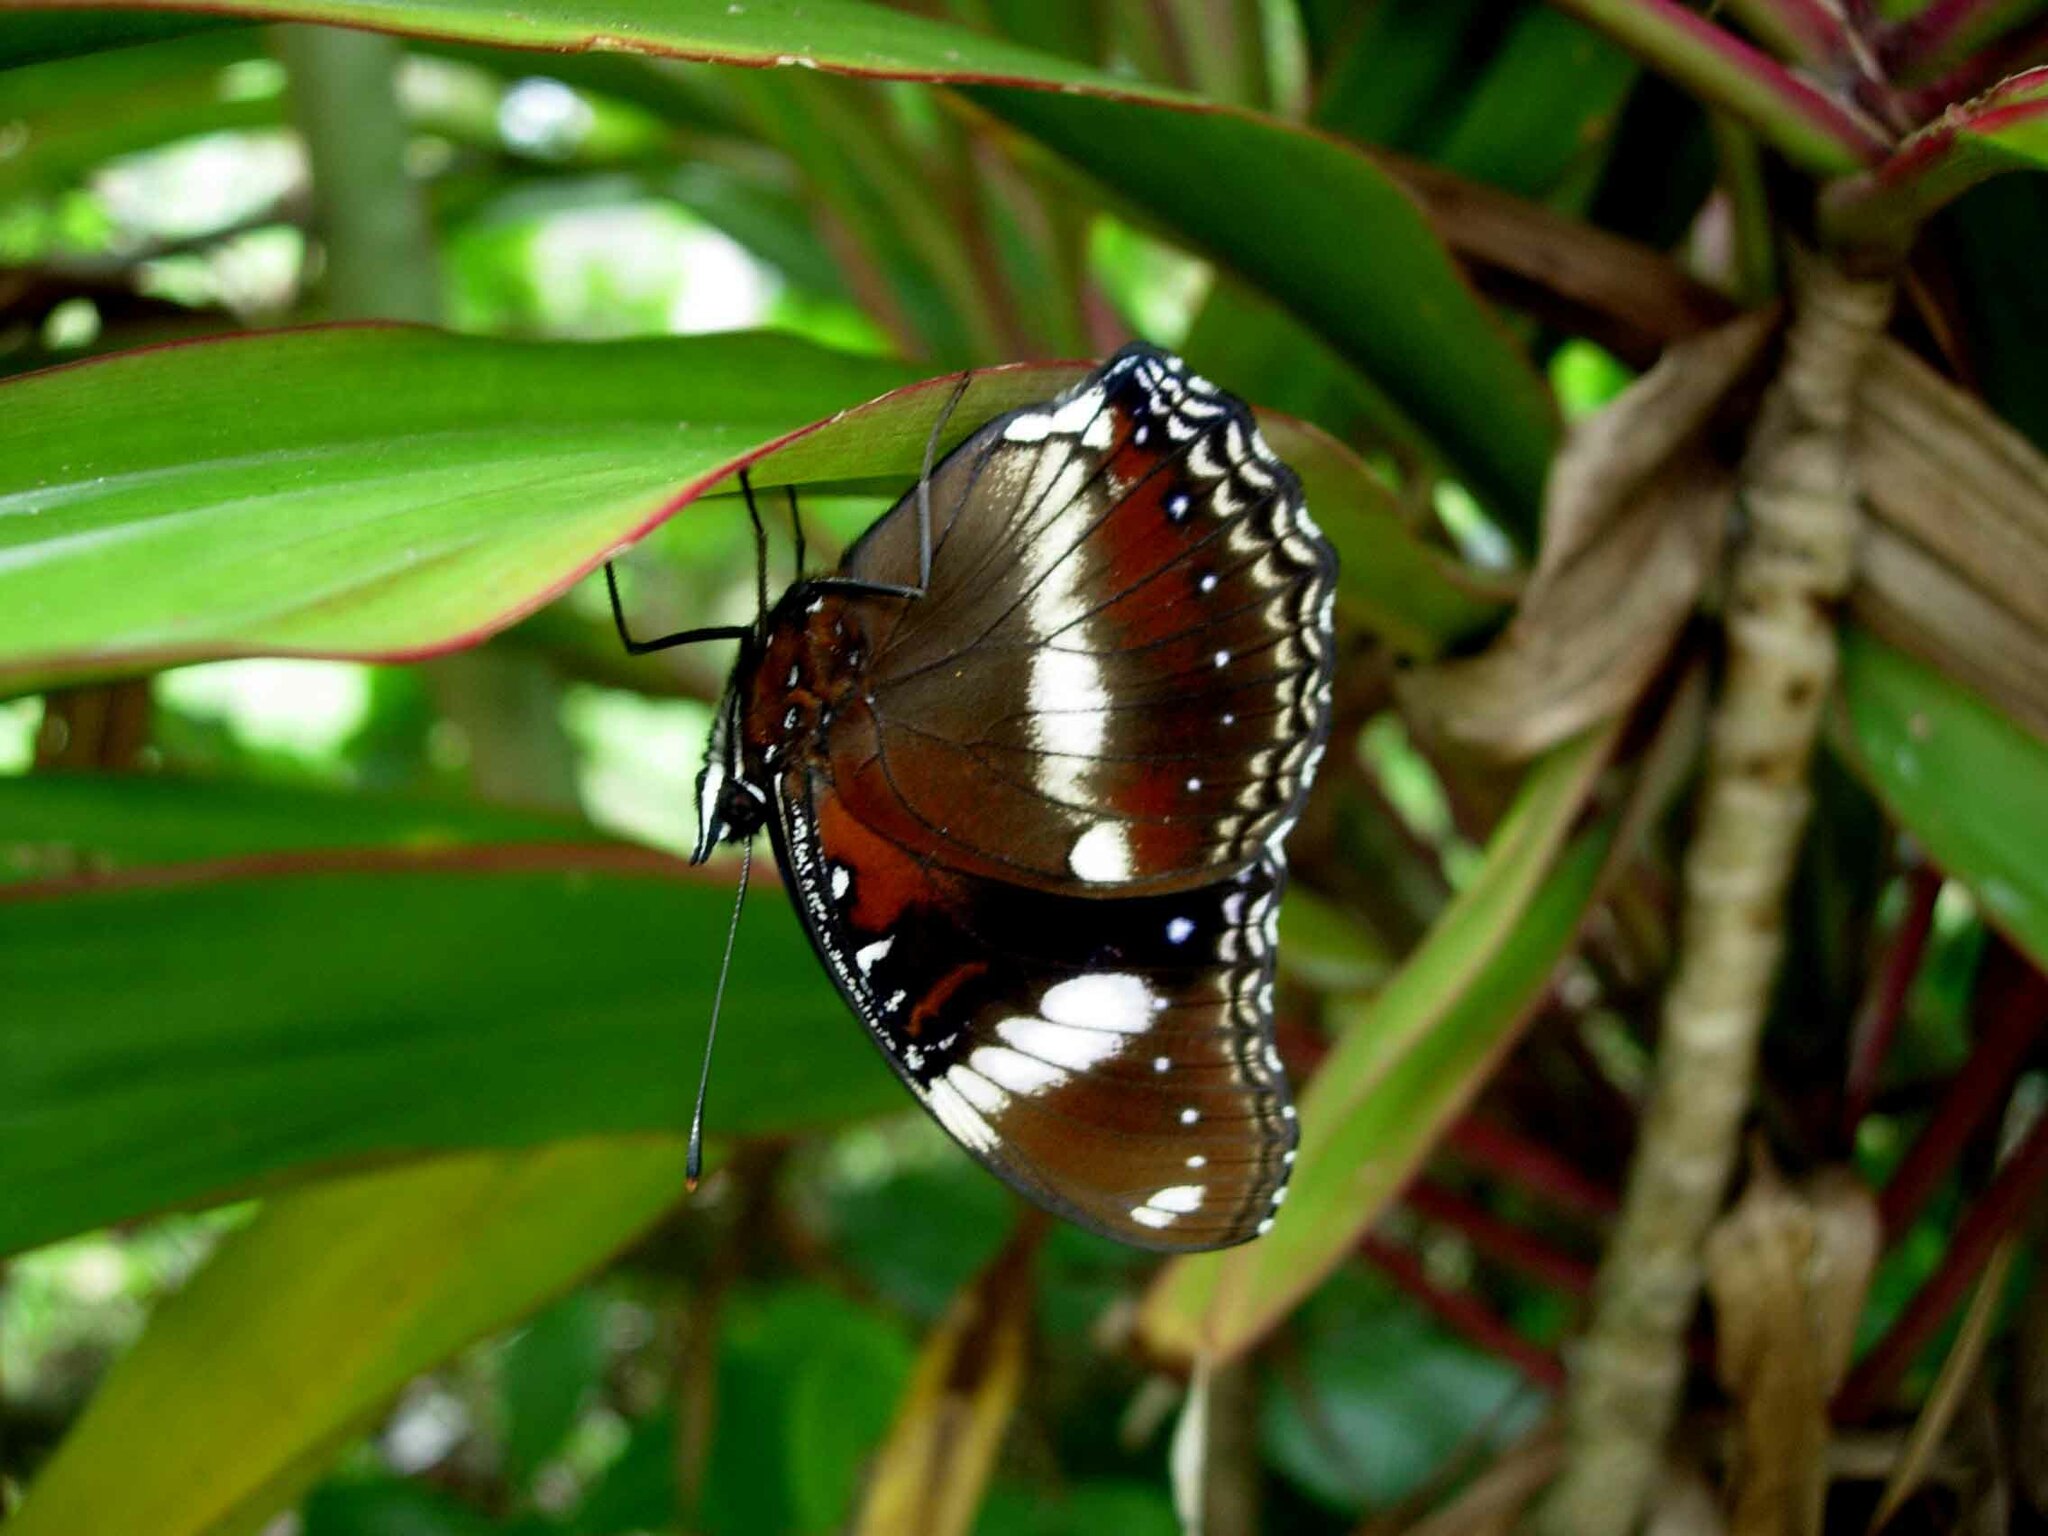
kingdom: Animalia
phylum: Arthropoda
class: Insecta
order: Lepidoptera
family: Nymphalidae
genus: Hypolimnas
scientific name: Hypolimnas bolina
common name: Great eggfly
